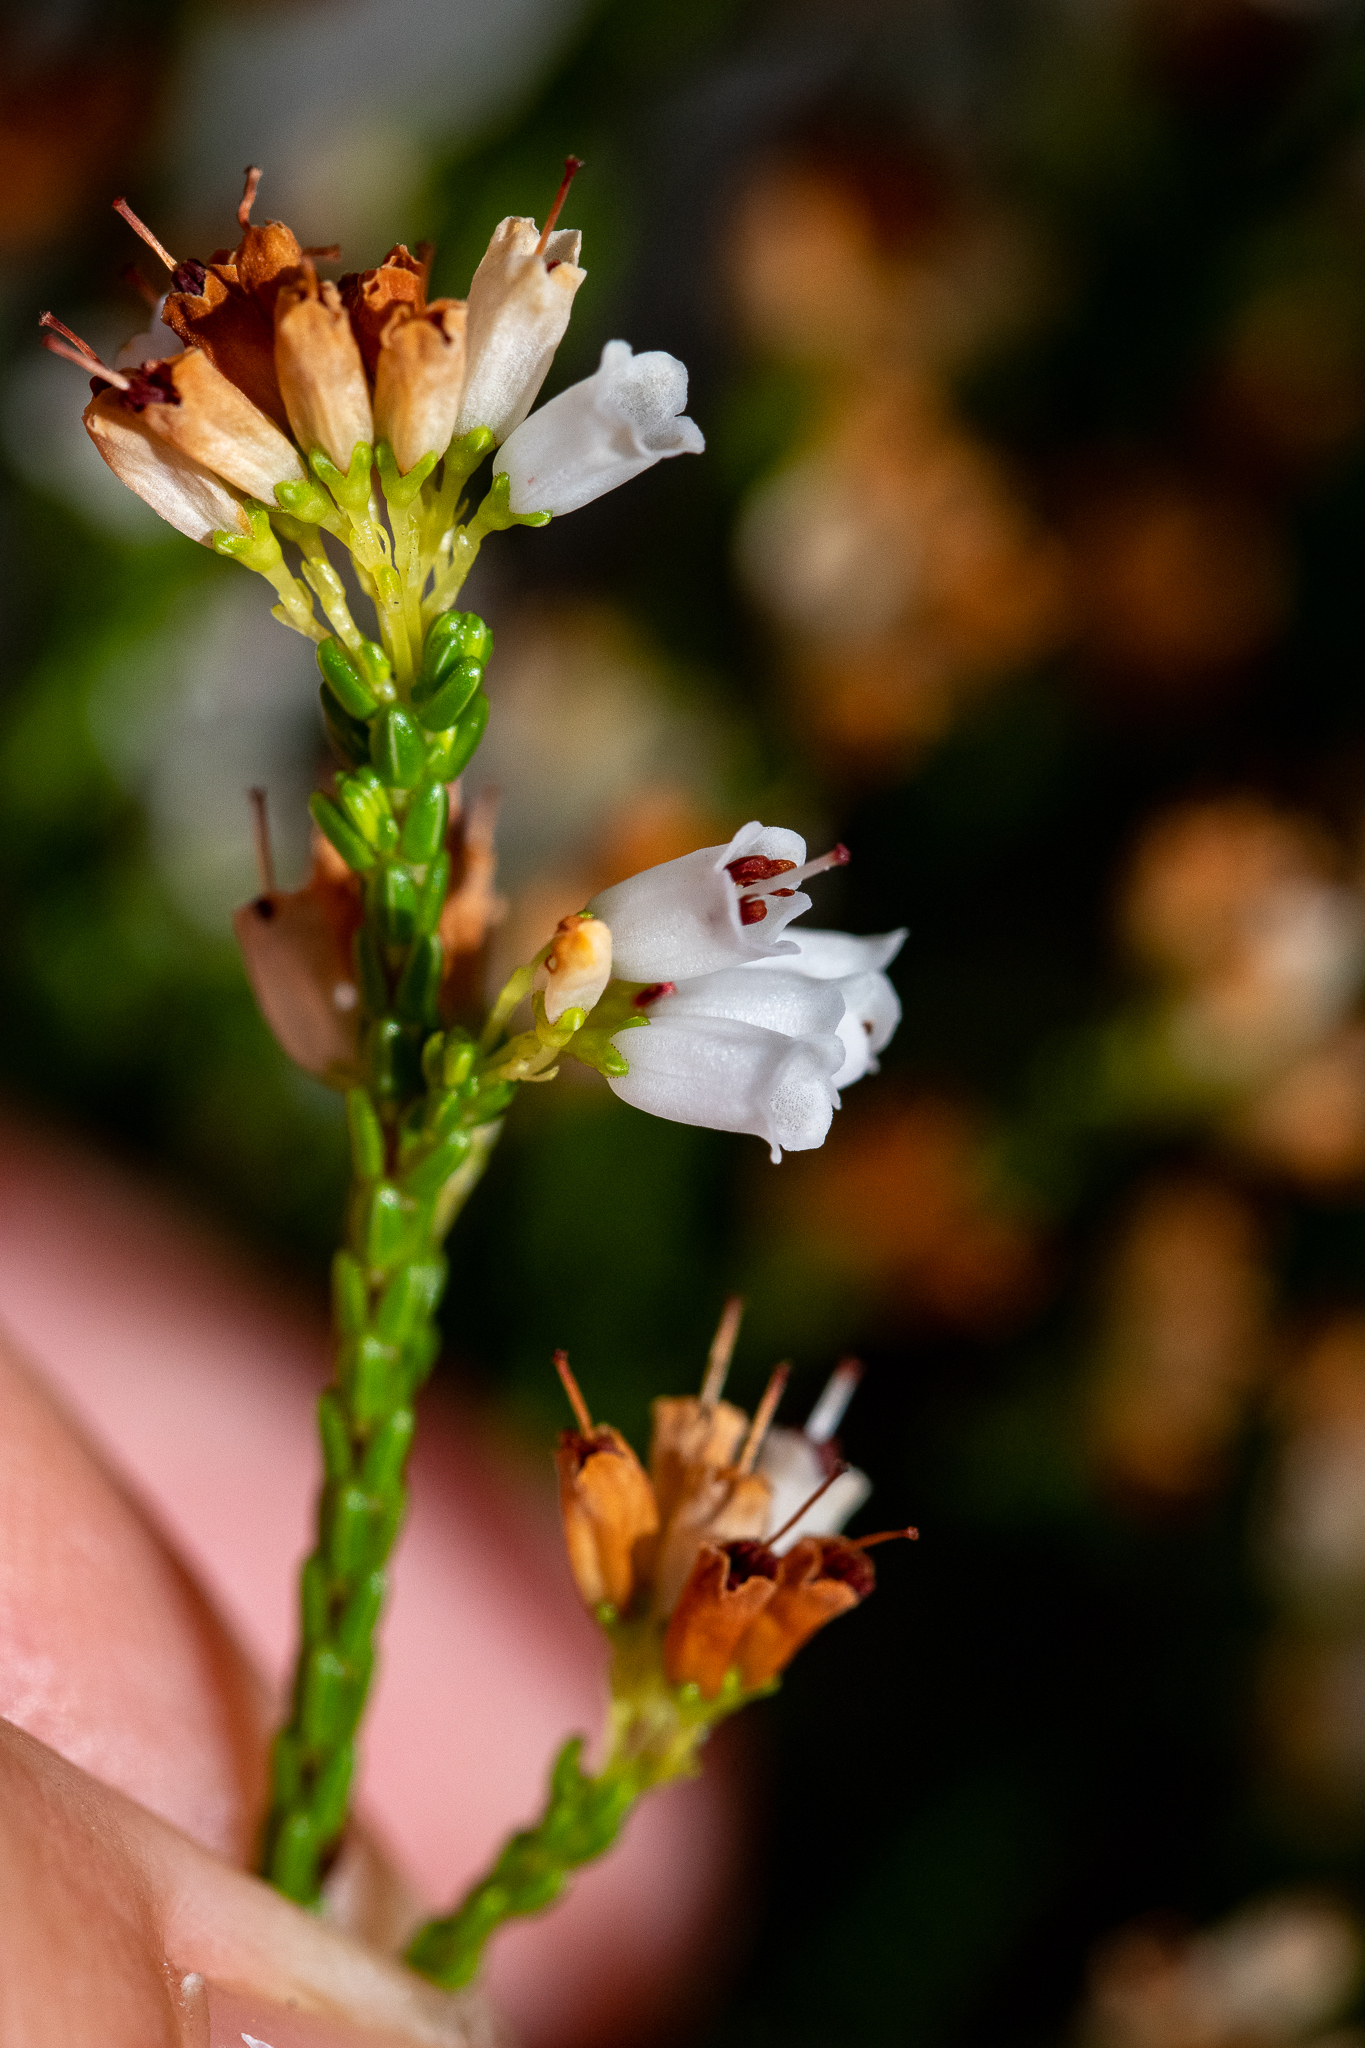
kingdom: Plantae
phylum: Tracheophyta
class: Magnoliopsida
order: Ericales
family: Ericaceae
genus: Erica
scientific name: Erica equisetifolia
